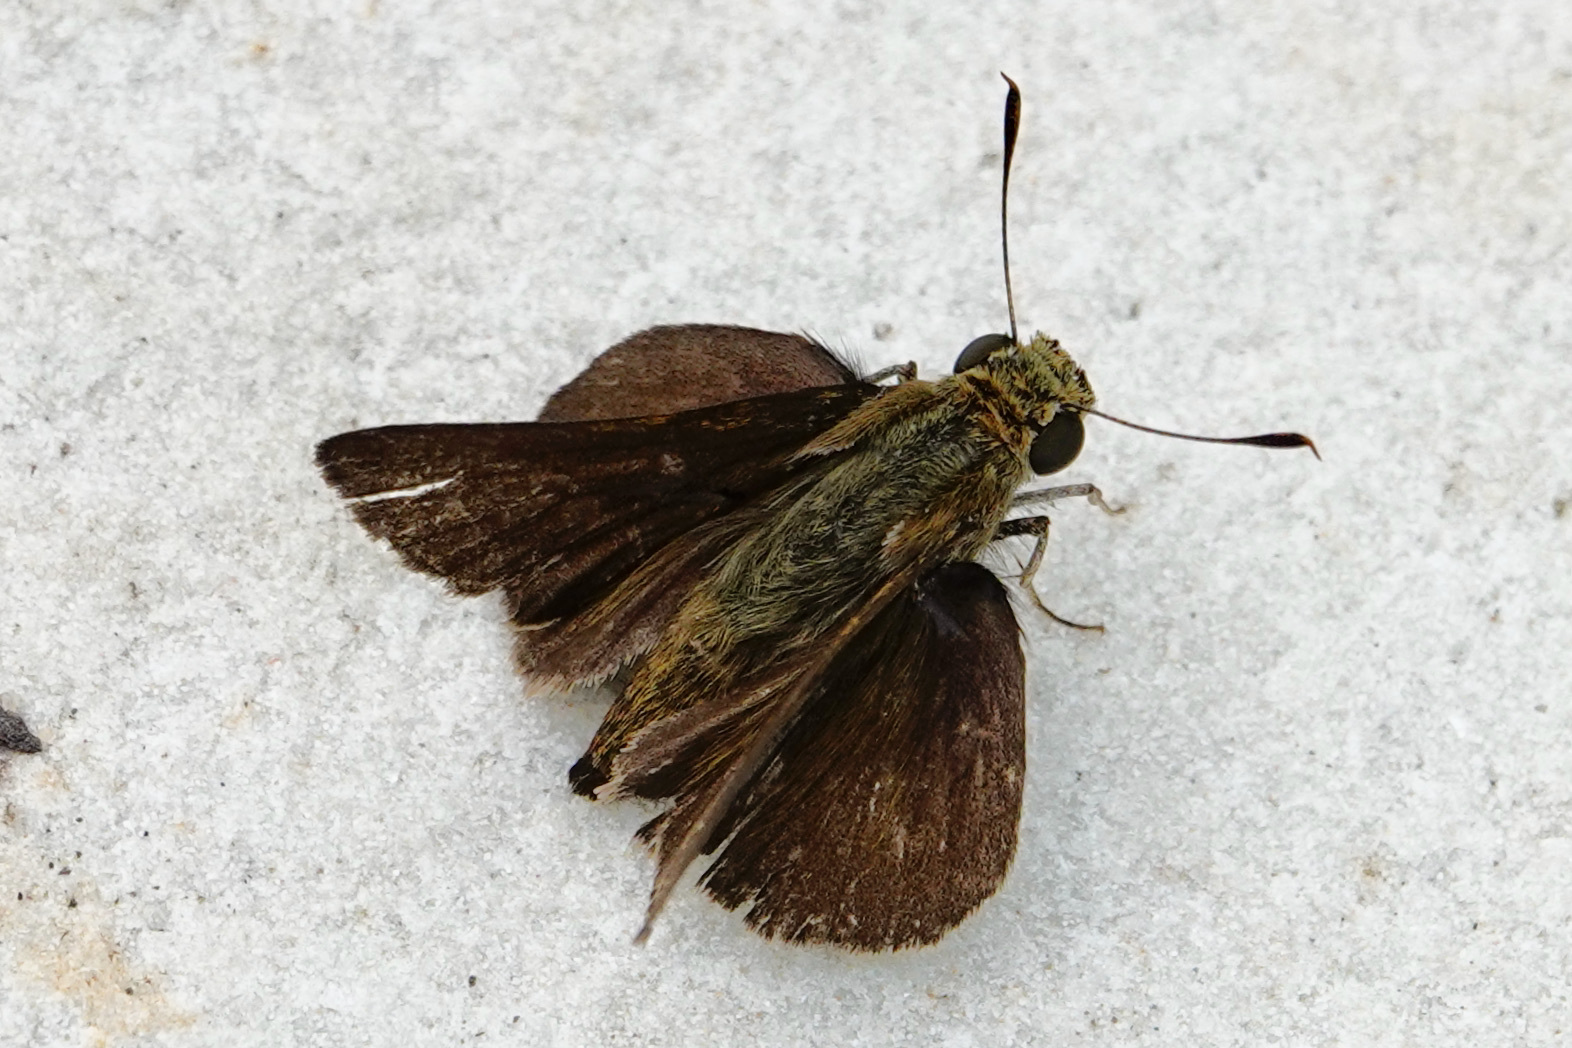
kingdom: Animalia
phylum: Arthropoda
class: Insecta
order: Lepidoptera
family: Hesperiidae
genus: Euphyes
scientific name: Euphyes vestris
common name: Dun skipper
